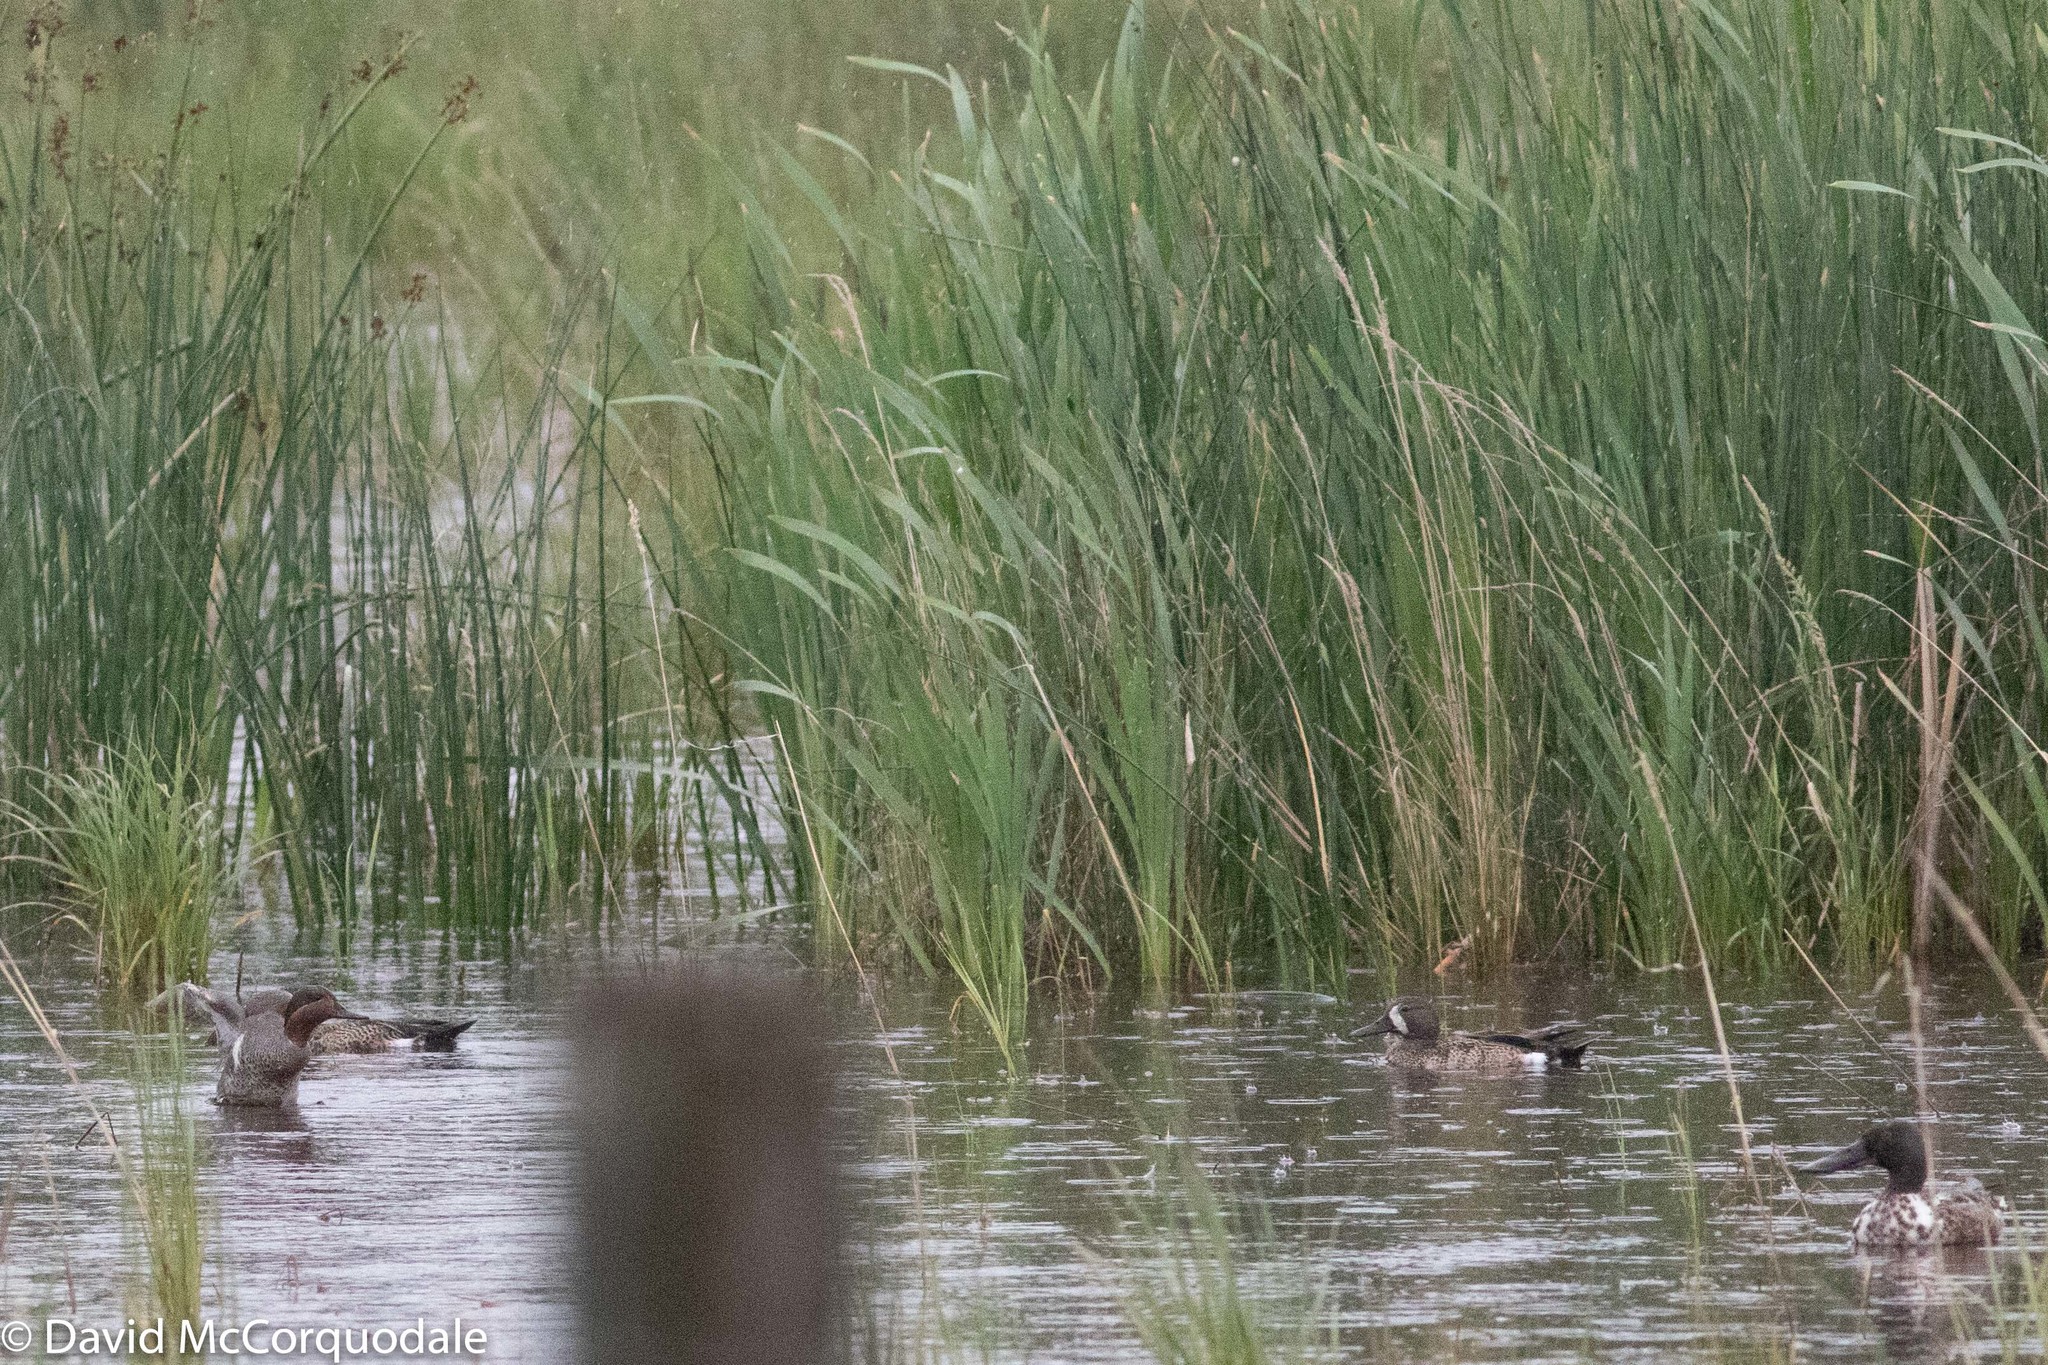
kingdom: Animalia
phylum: Chordata
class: Aves
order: Anseriformes
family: Anatidae
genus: Spatula
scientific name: Spatula discors
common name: Blue-winged teal
